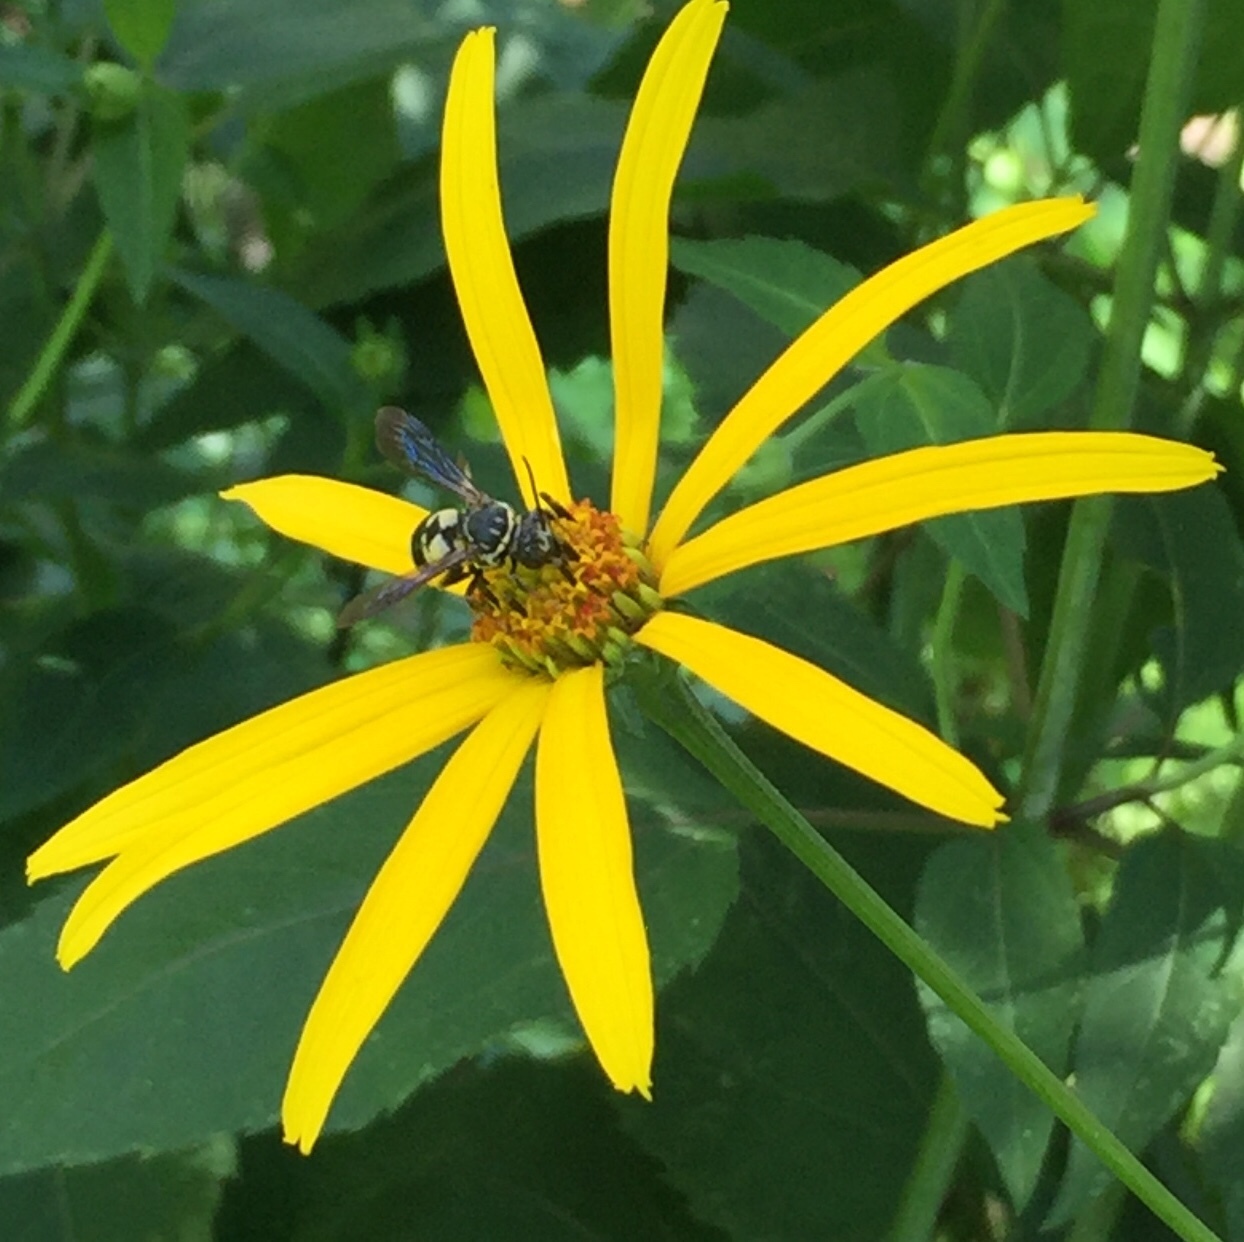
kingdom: Animalia
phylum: Arthropoda
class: Insecta
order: Hymenoptera
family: Apidae
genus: Triepeolus
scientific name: Triepeolus lunatus
